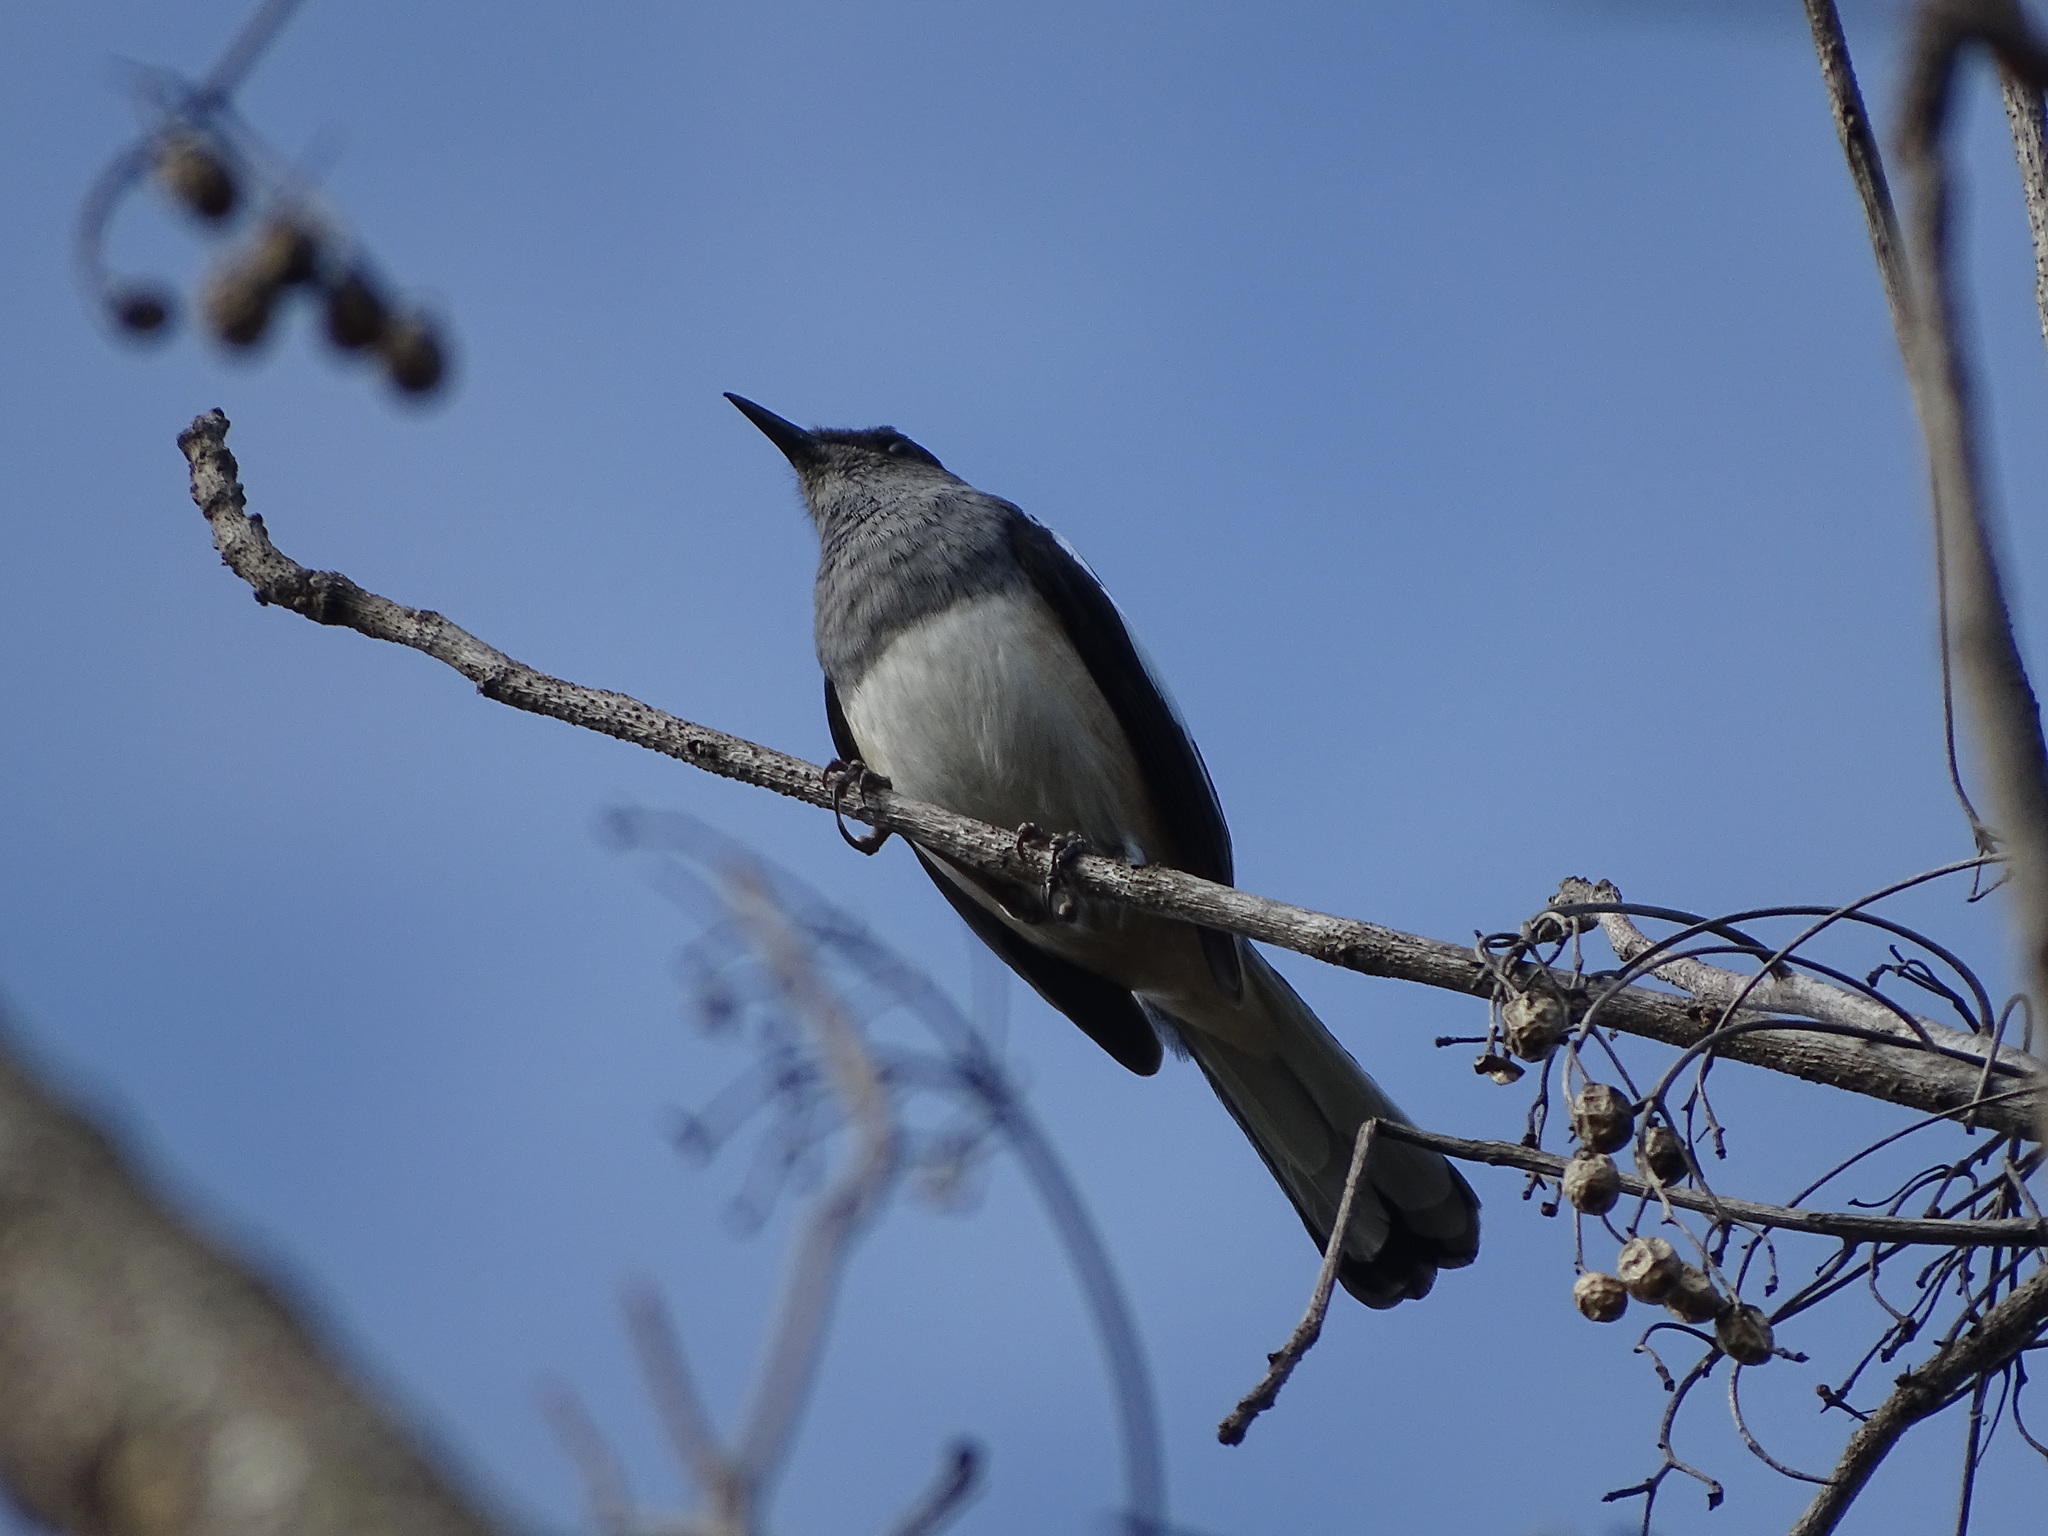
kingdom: Animalia
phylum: Chordata
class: Aves
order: Passeriformes
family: Muscicapidae
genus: Copsychus
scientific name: Copsychus saularis
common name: Oriental magpie-robin
